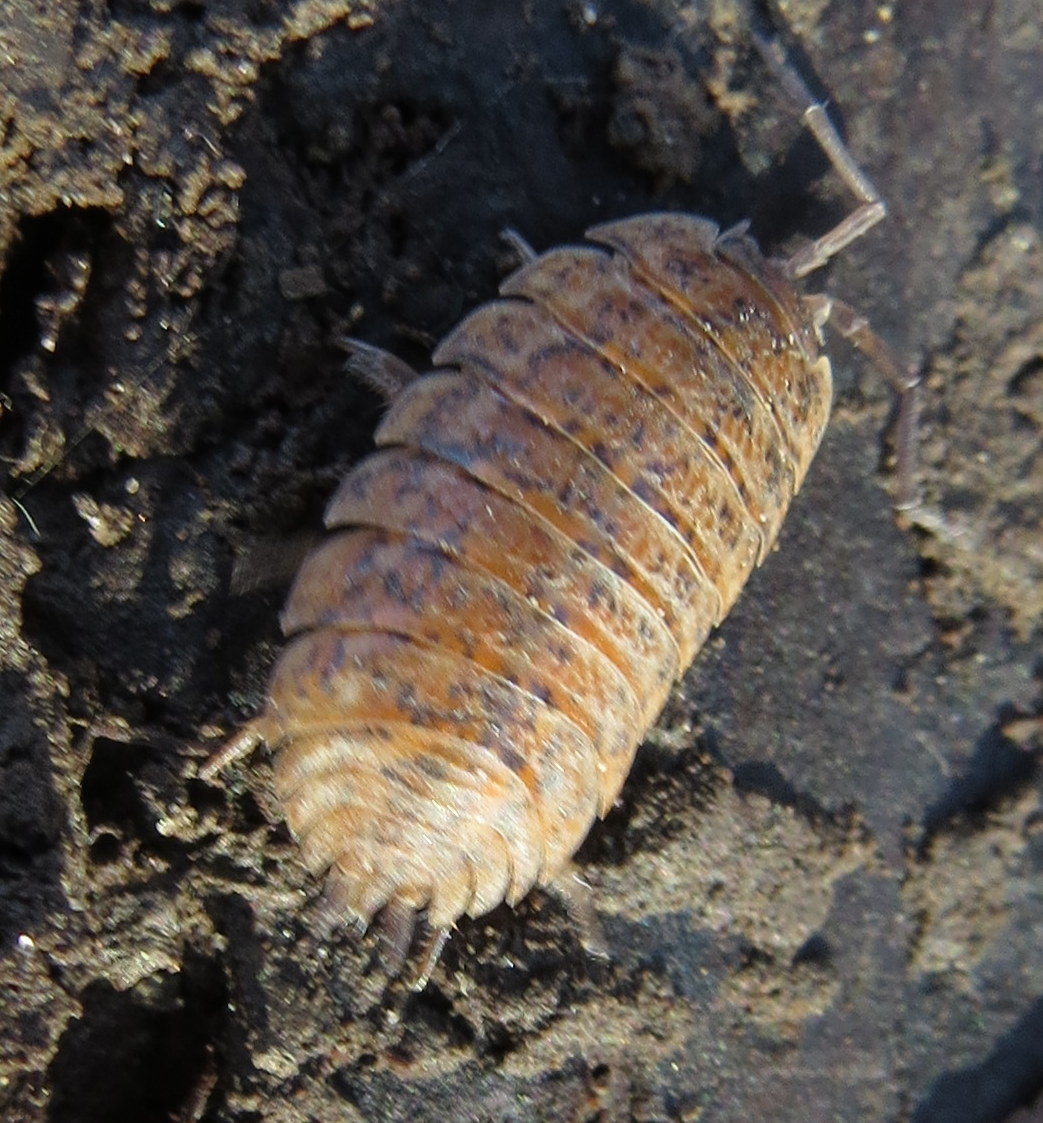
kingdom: Animalia
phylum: Arthropoda
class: Malacostraca
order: Isopoda
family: Trachelipodidae
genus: Trachelipus
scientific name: Trachelipus rathkii
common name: Isopod
